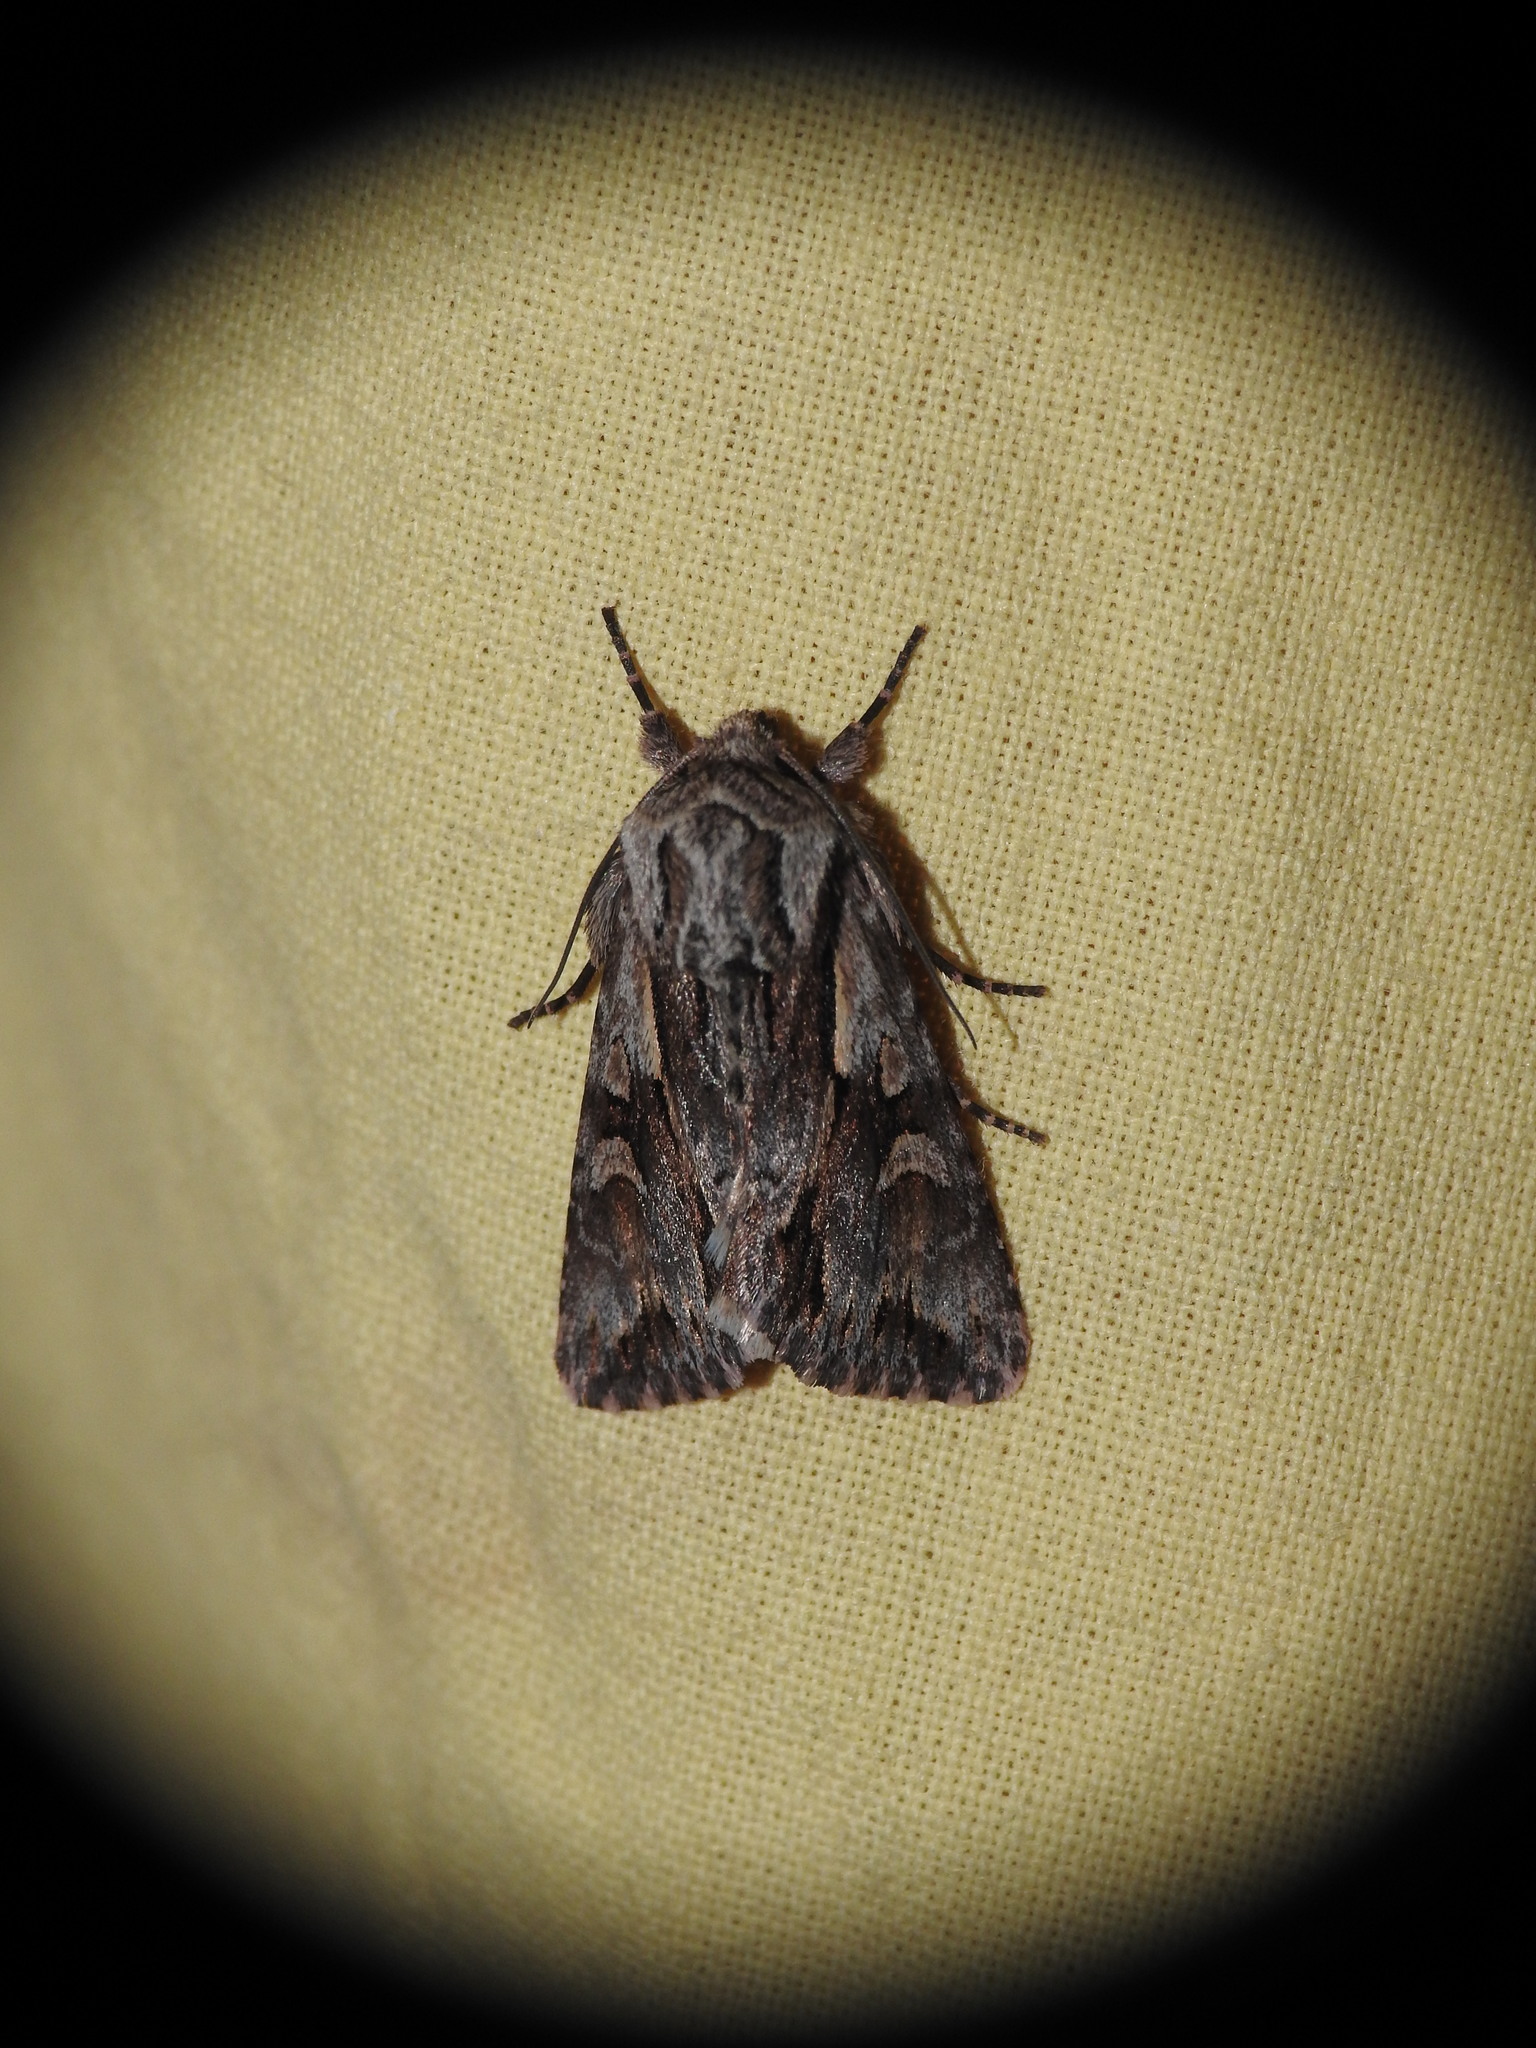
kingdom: Animalia
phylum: Arthropoda
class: Insecta
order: Lepidoptera
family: Noctuidae
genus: Chloantha
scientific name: Chloantha hyperici
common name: Pale-shouldered cloud
